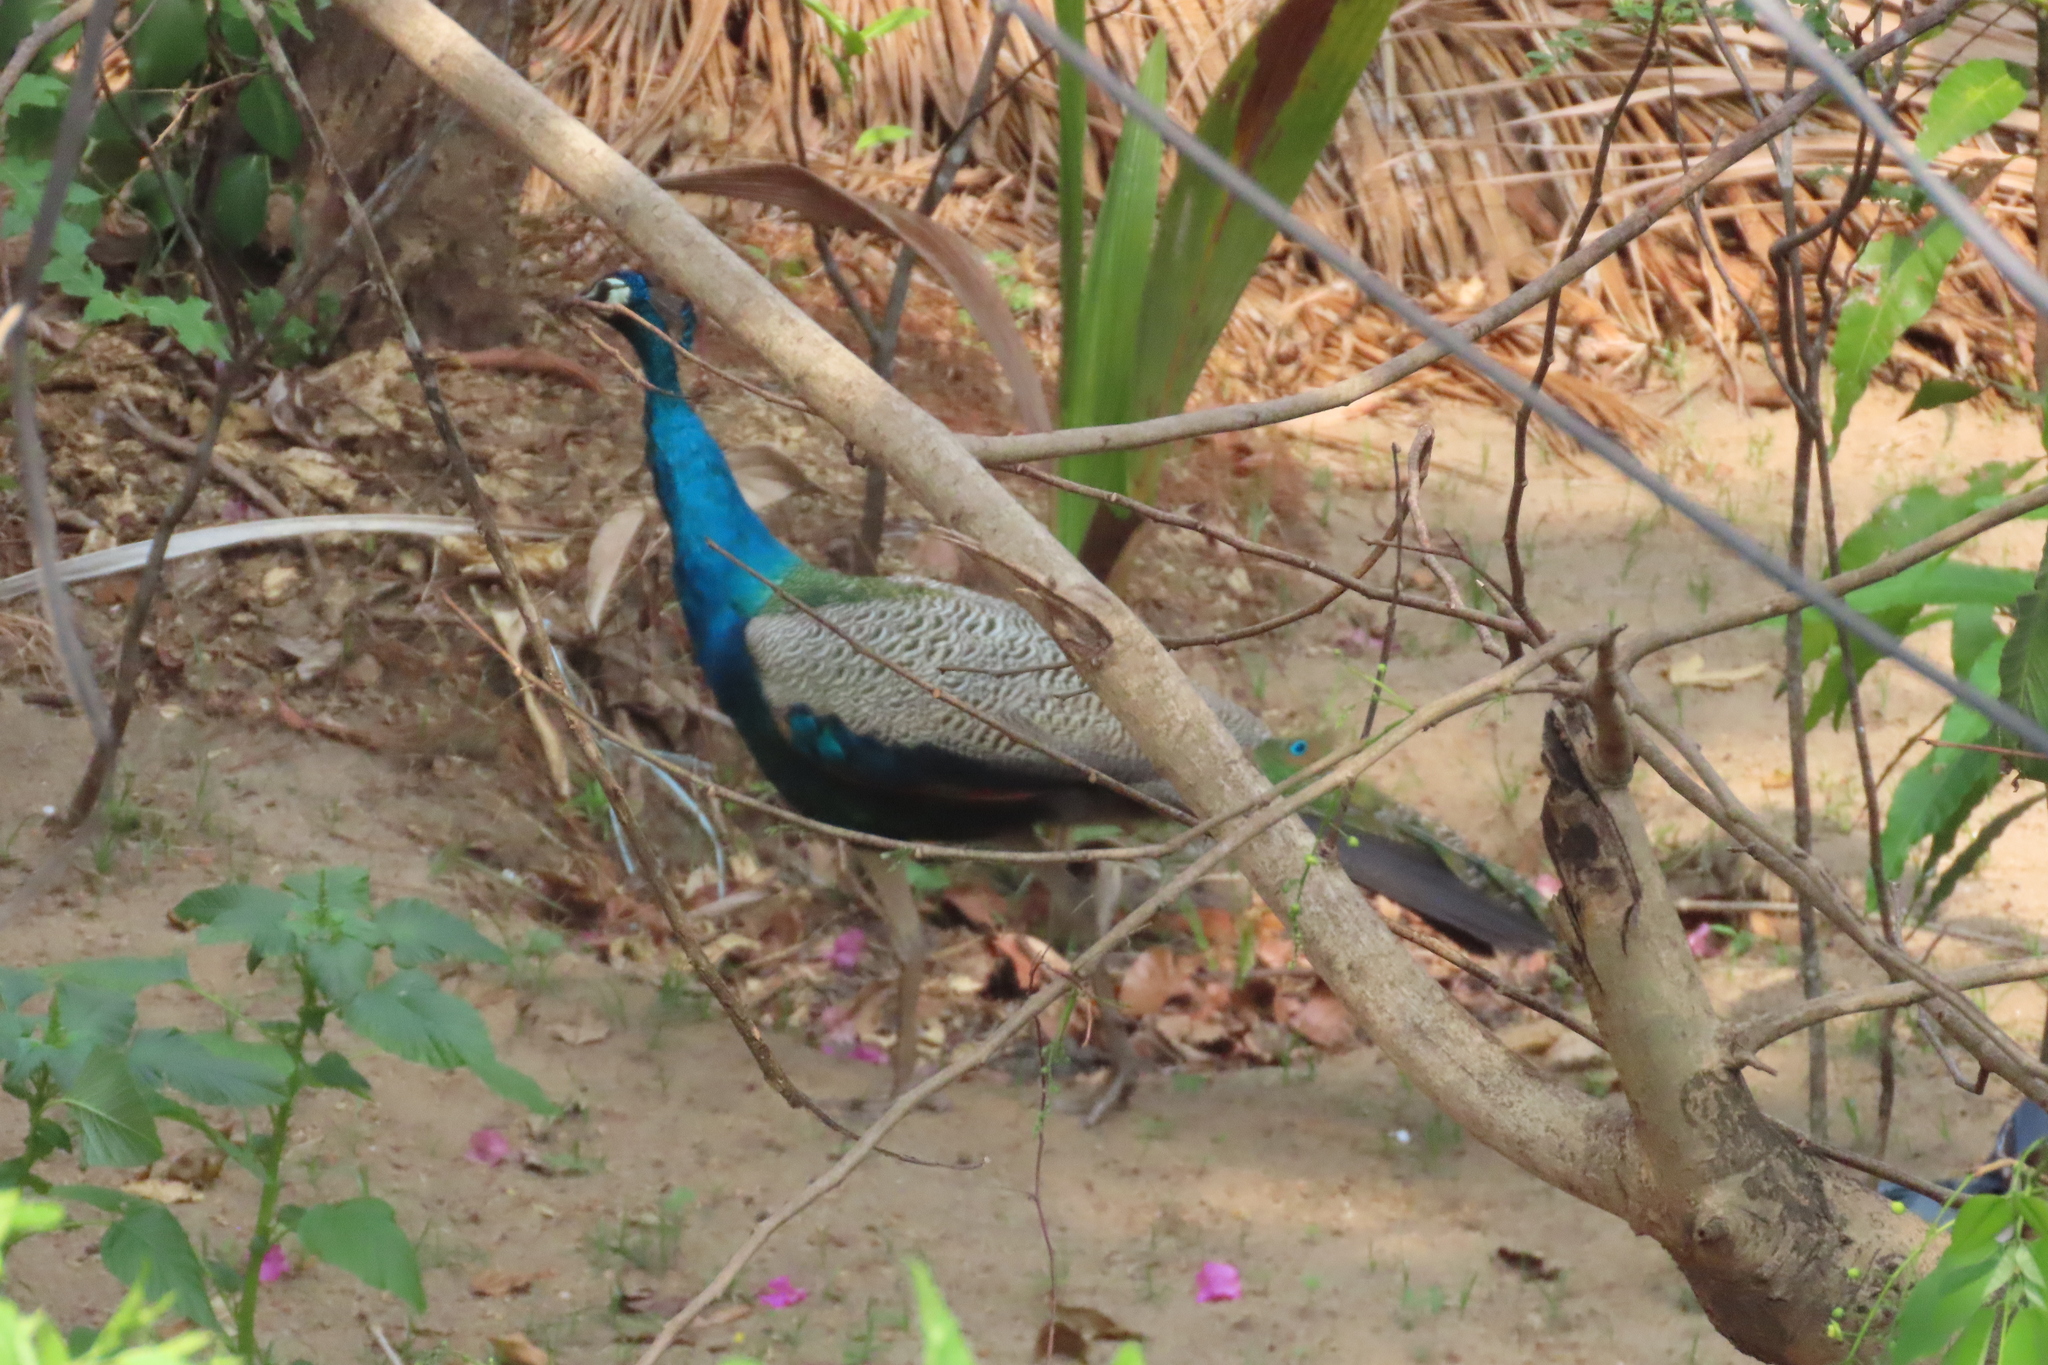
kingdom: Animalia
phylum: Chordata
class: Aves
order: Galliformes
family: Phasianidae
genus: Pavo
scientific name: Pavo cristatus
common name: Indian peafowl
